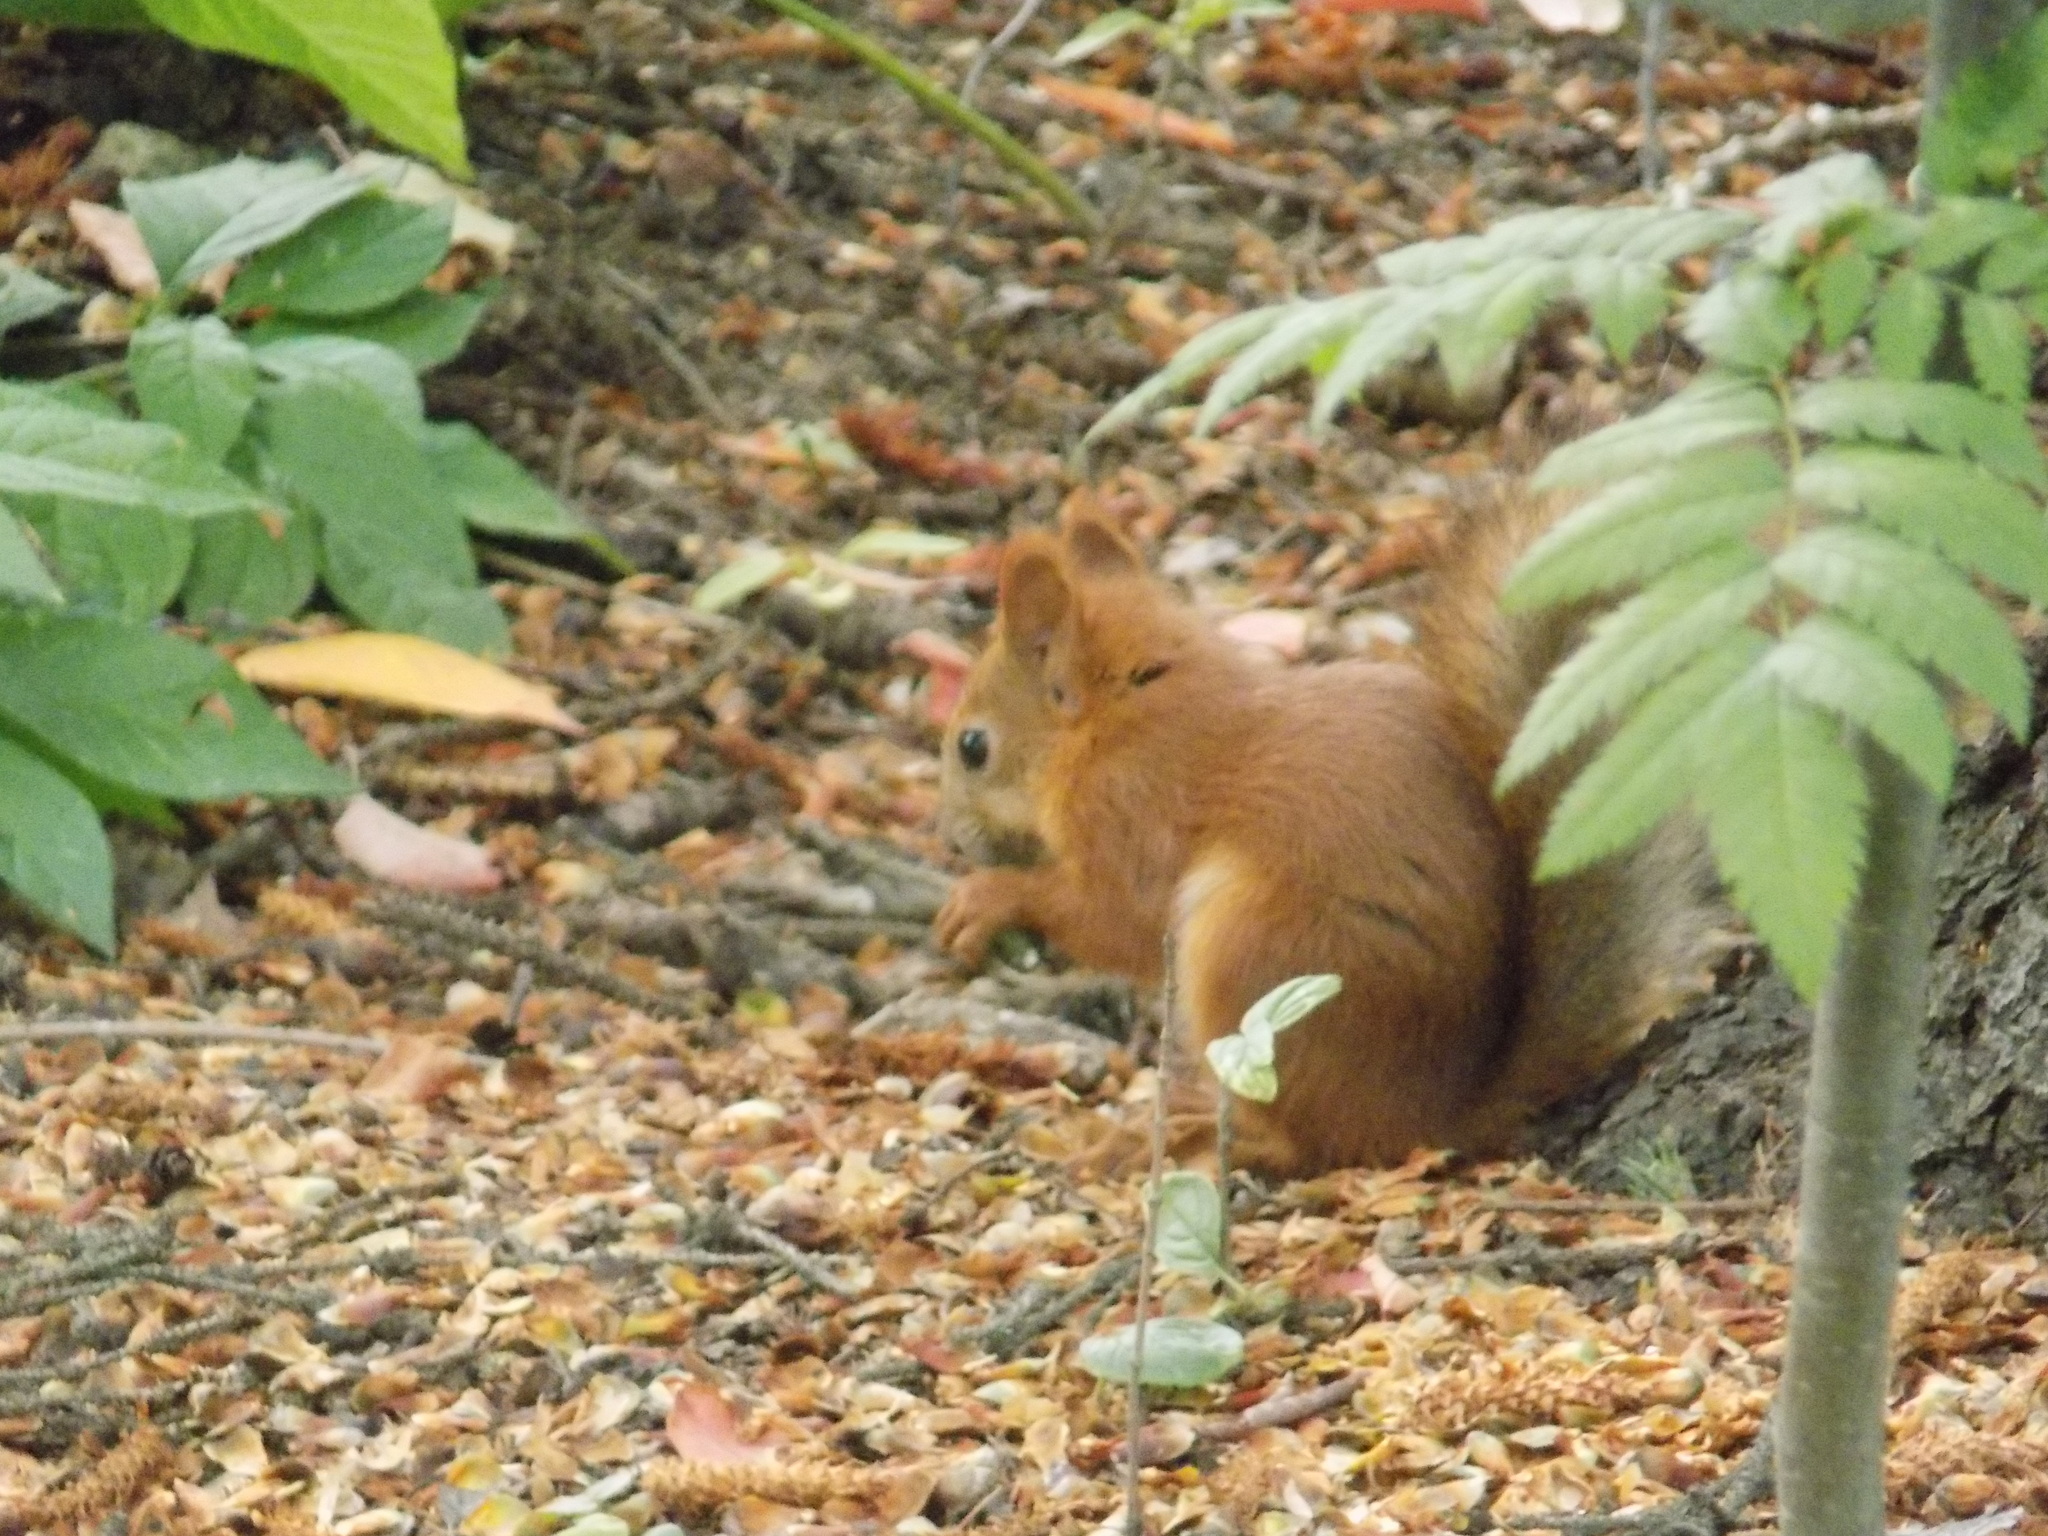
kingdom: Animalia
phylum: Chordata
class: Mammalia
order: Rodentia
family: Sciuridae
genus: Sciurus
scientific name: Sciurus vulgaris
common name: Eurasian red squirrel
